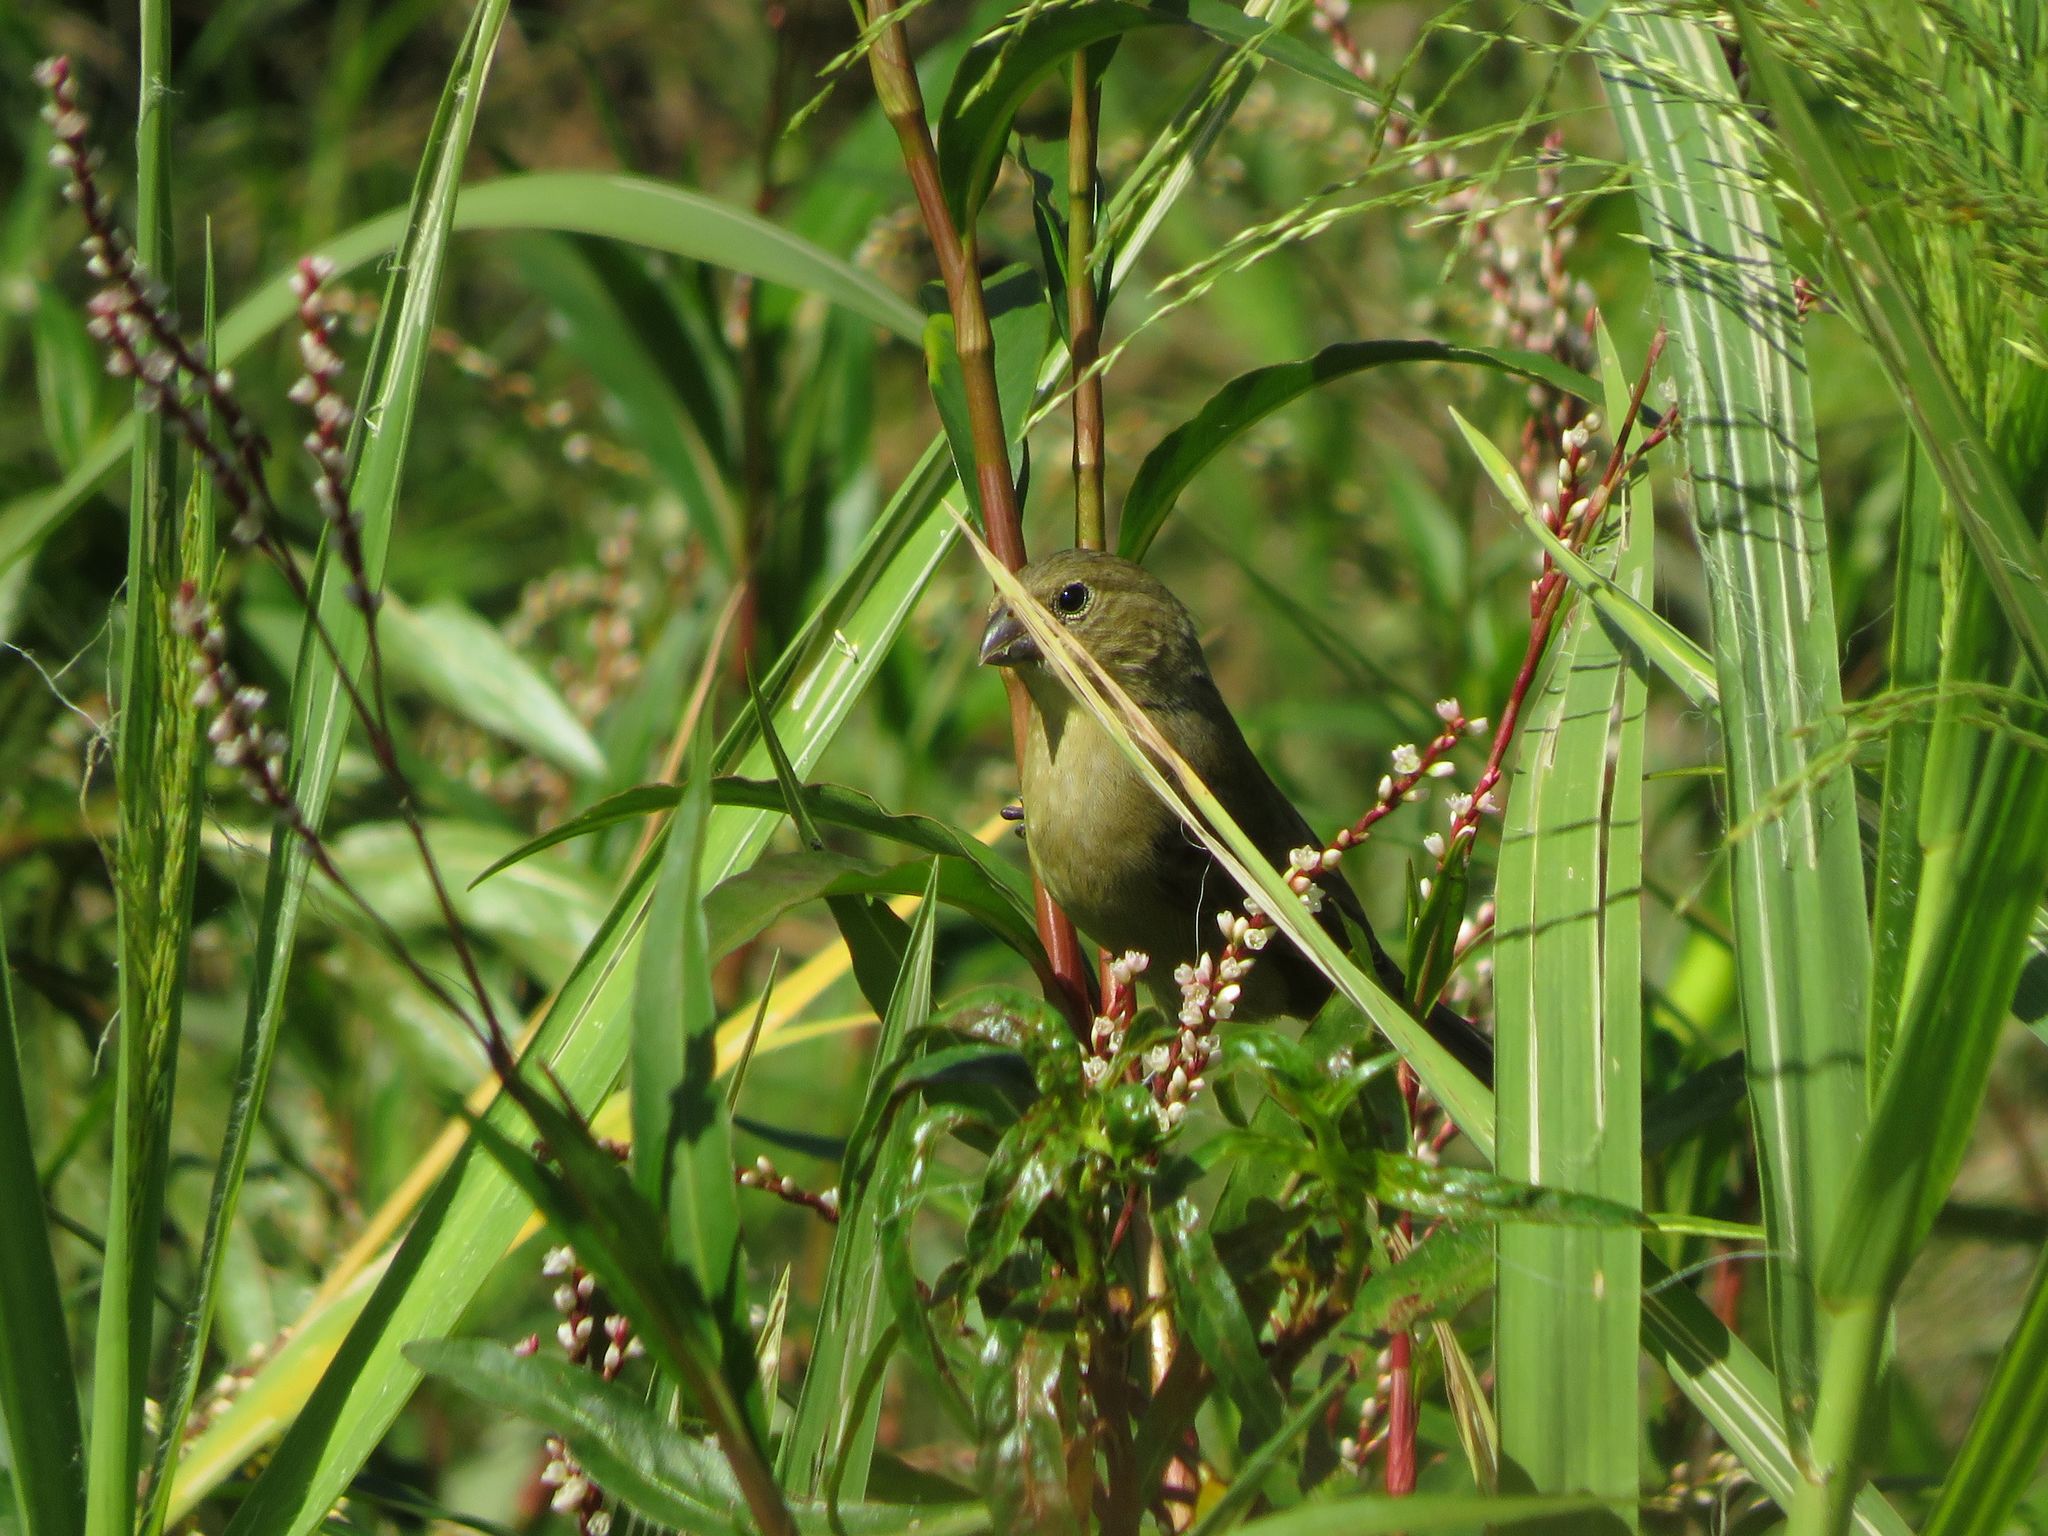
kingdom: Animalia
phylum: Chordata
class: Aves
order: Passeriformes
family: Thraupidae
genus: Sporophila
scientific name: Sporophila caerulescens
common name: Double-collared seedeater
